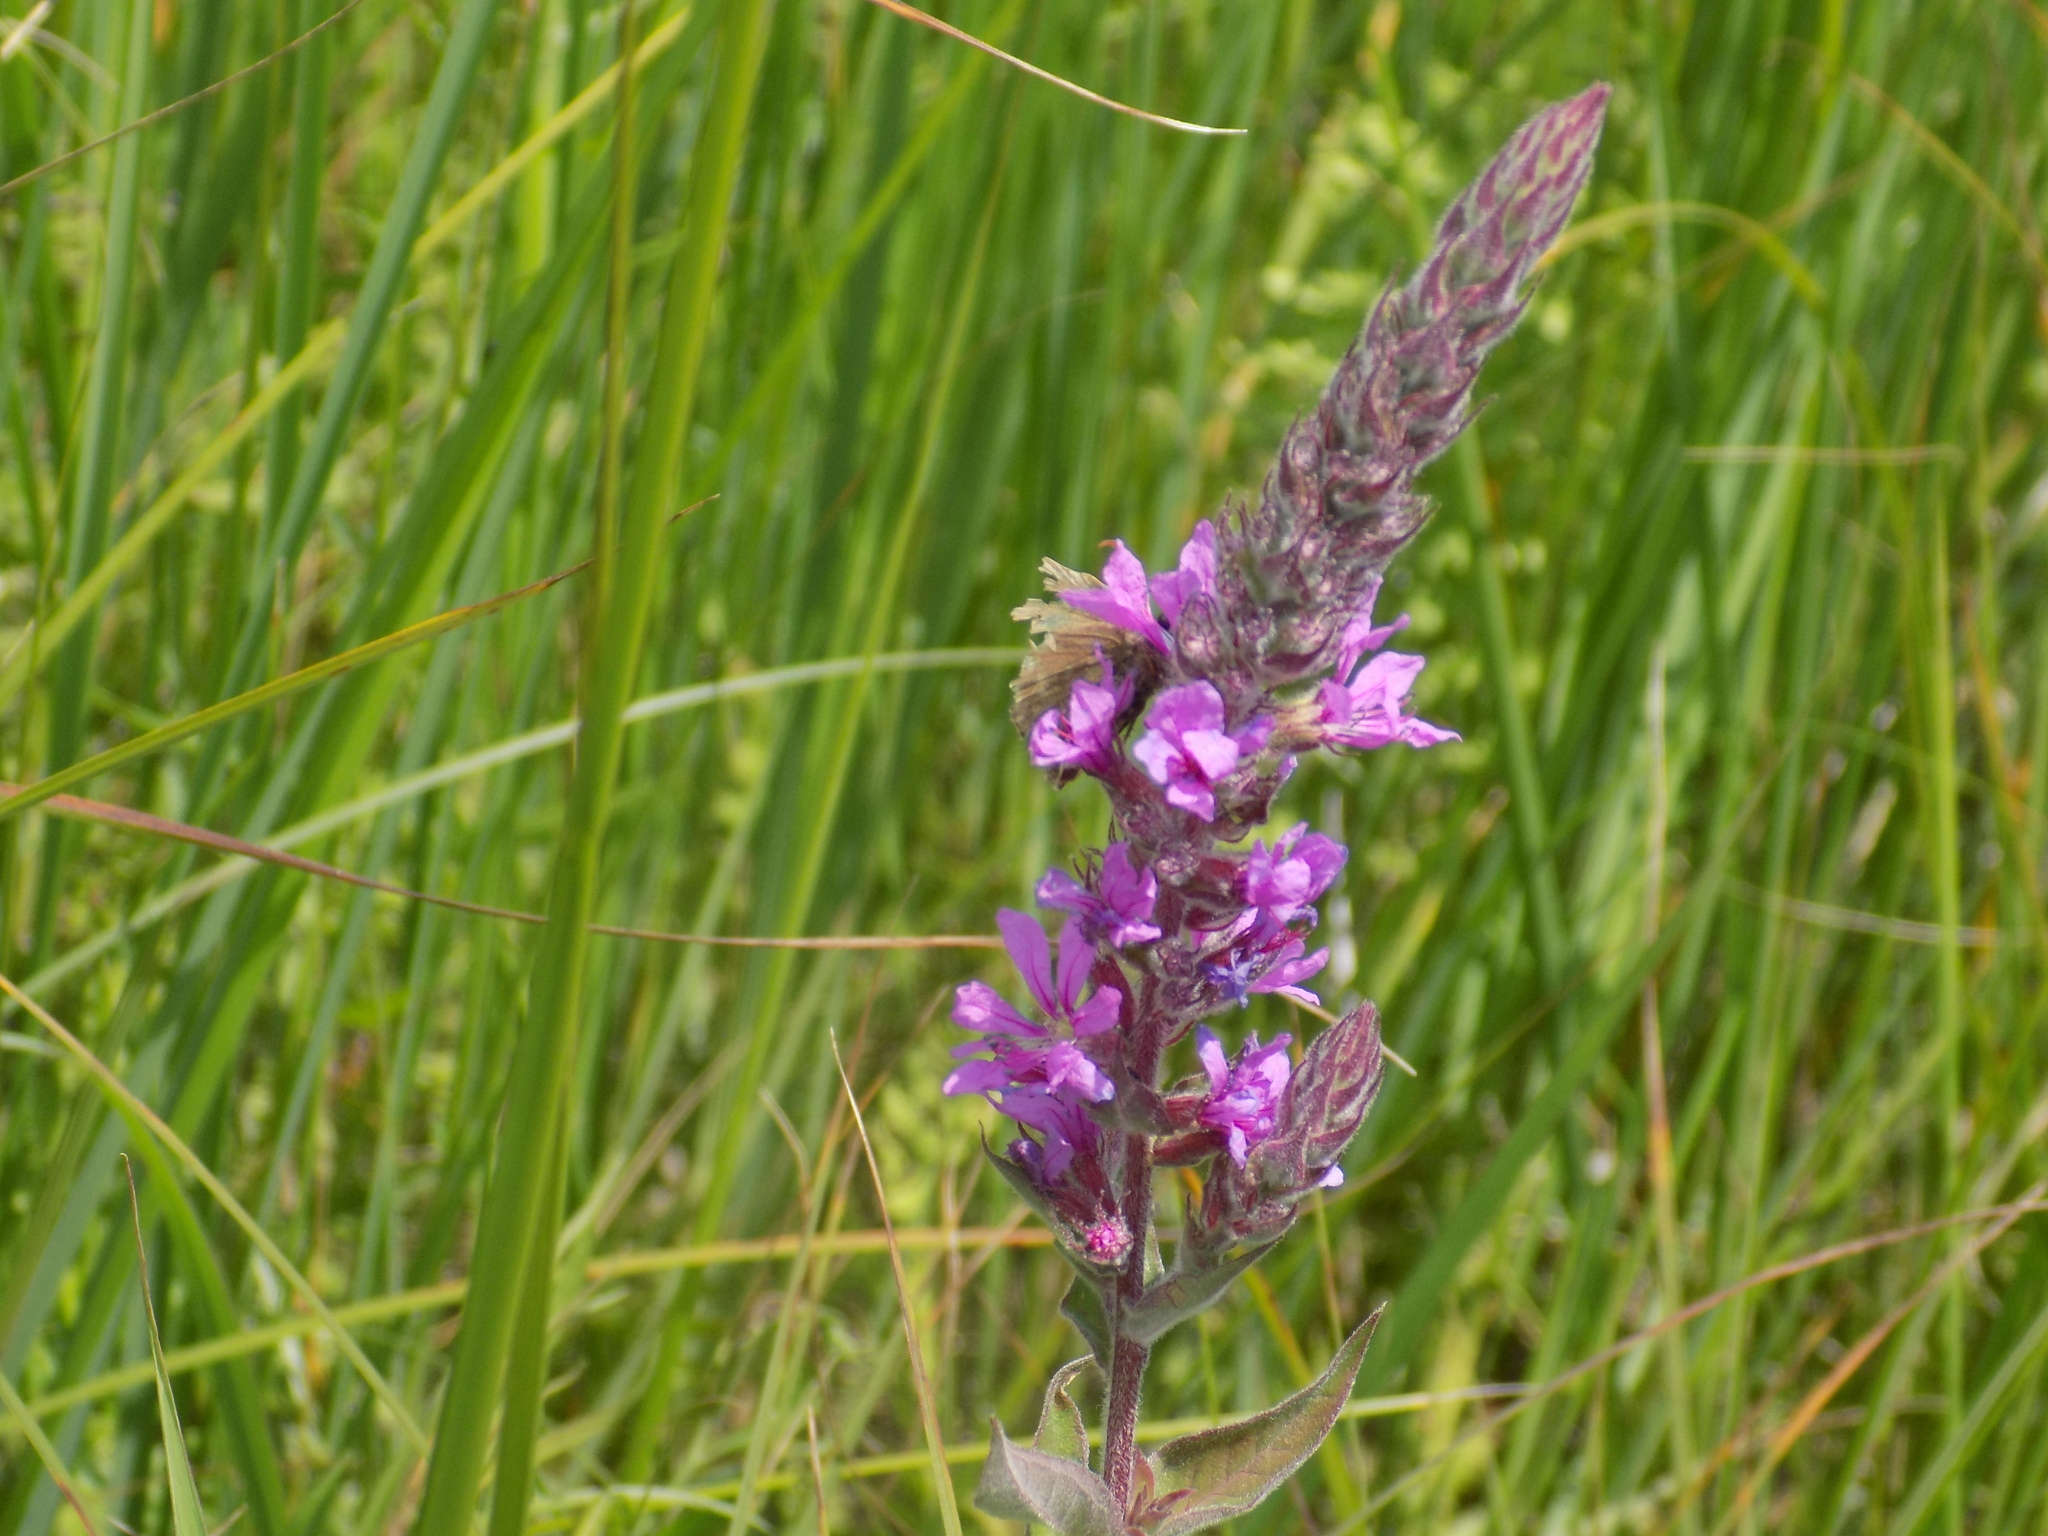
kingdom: Plantae
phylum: Tracheophyta
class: Magnoliopsida
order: Myrtales
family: Lythraceae
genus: Lythrum
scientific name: Lythrum salicaria
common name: Purple loosestrife
